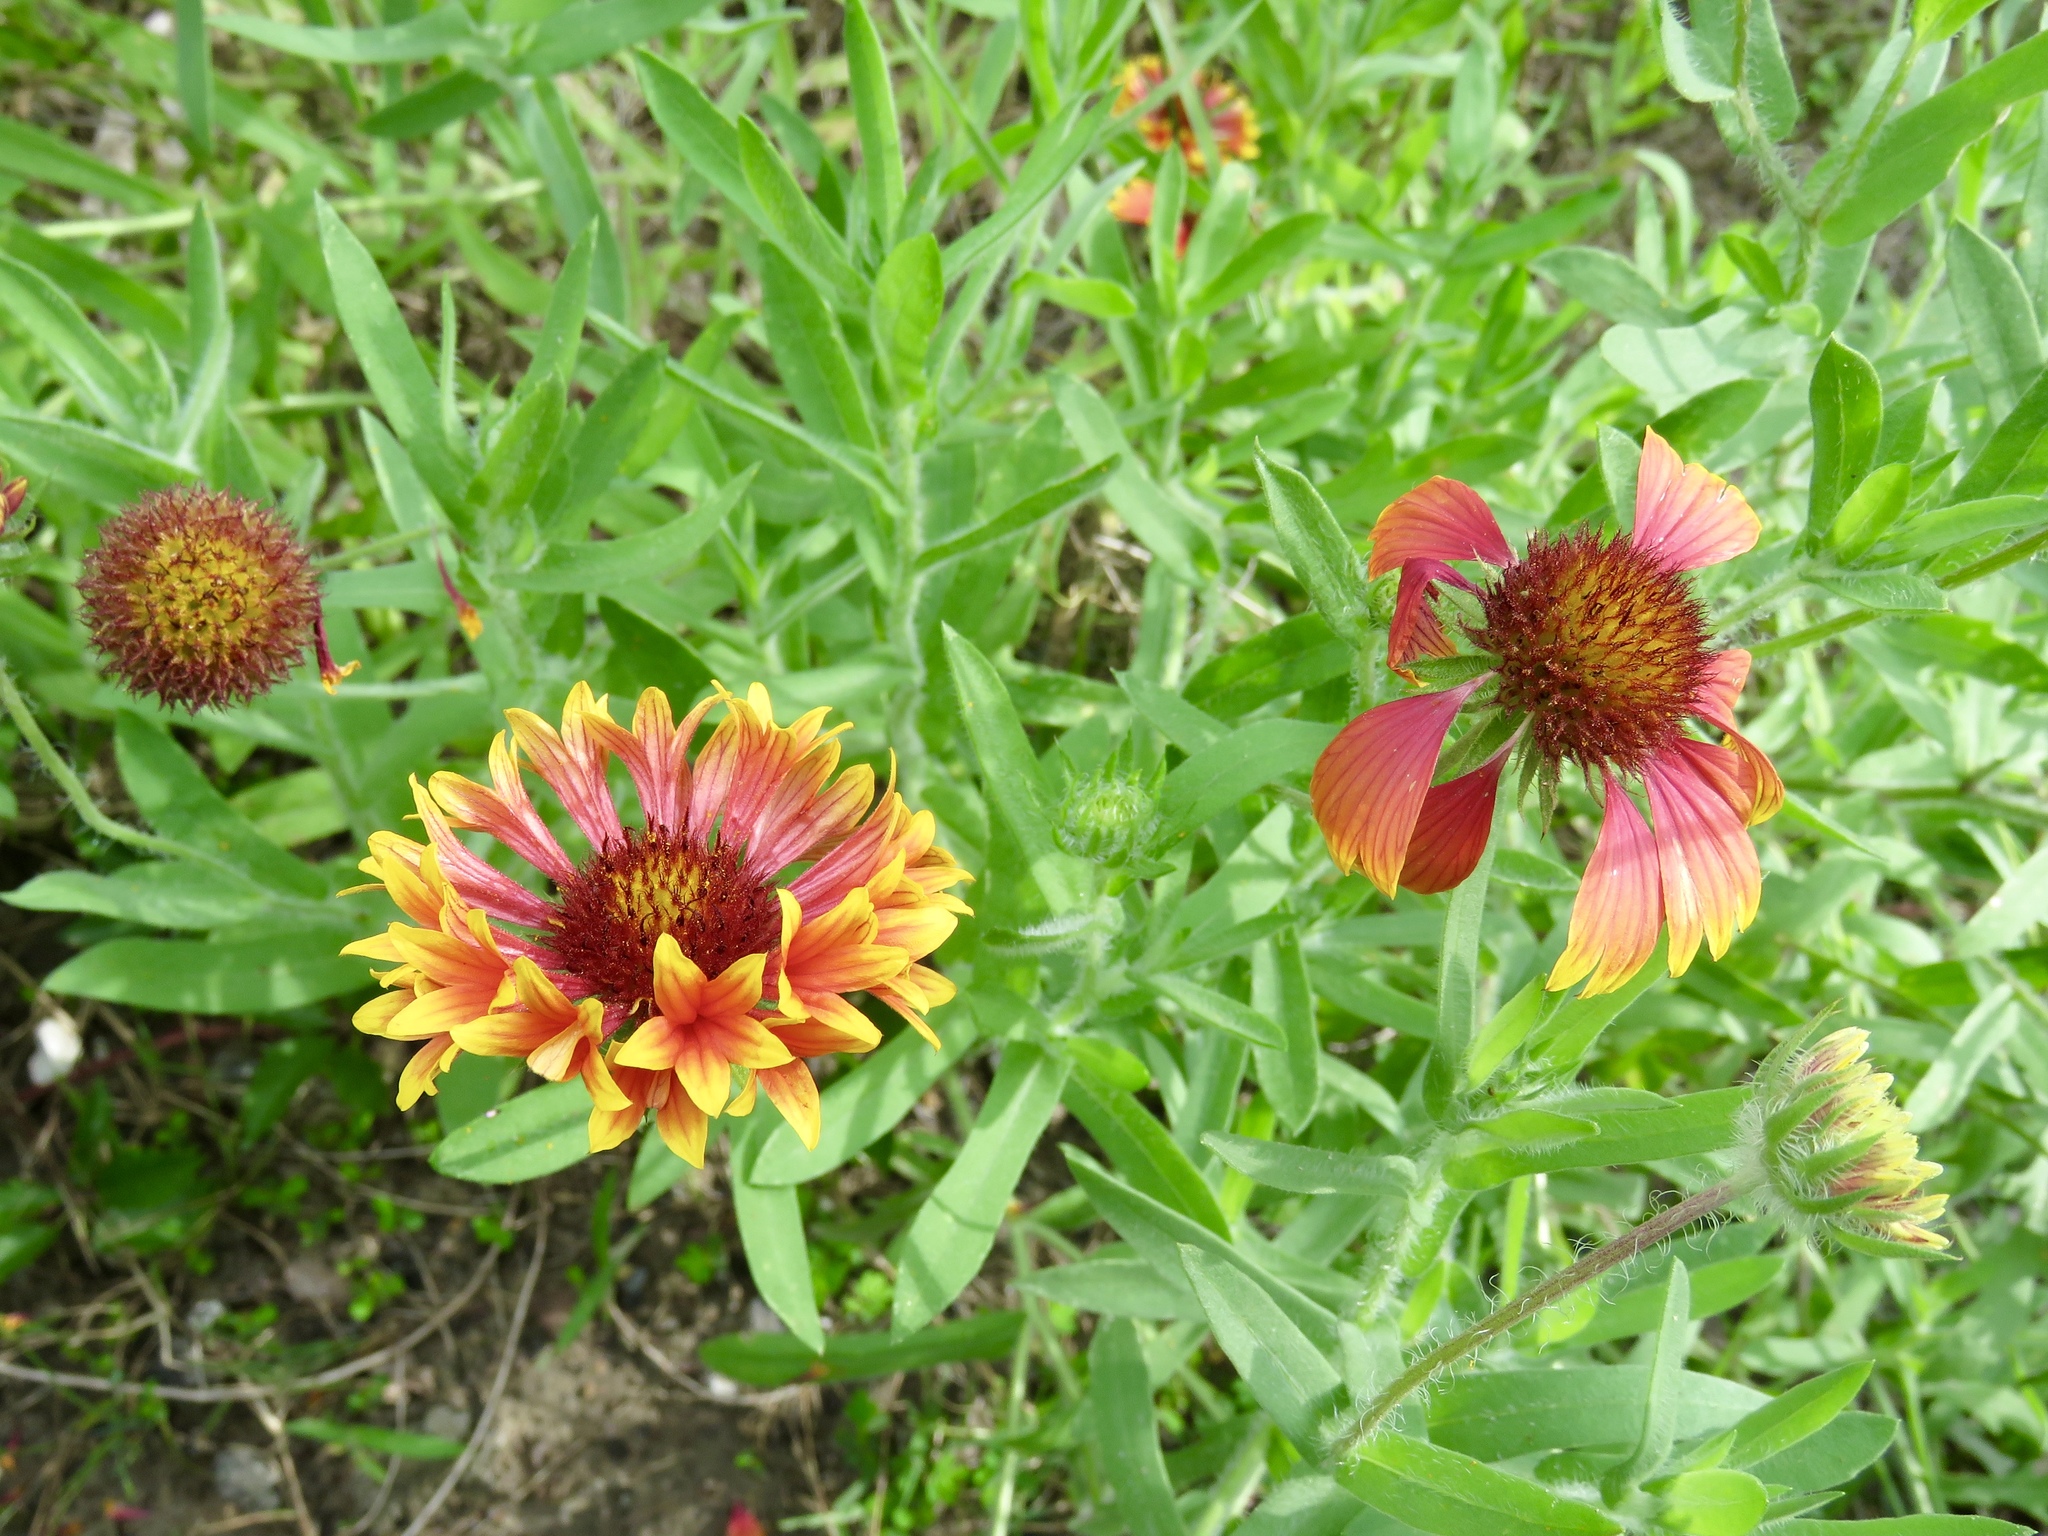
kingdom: Plantae
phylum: Tracheophyta
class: Magnoliopsida
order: Asterales
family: Asteraceae
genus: Gaillardia
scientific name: Gaillardia pulchella
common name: Firewheel
